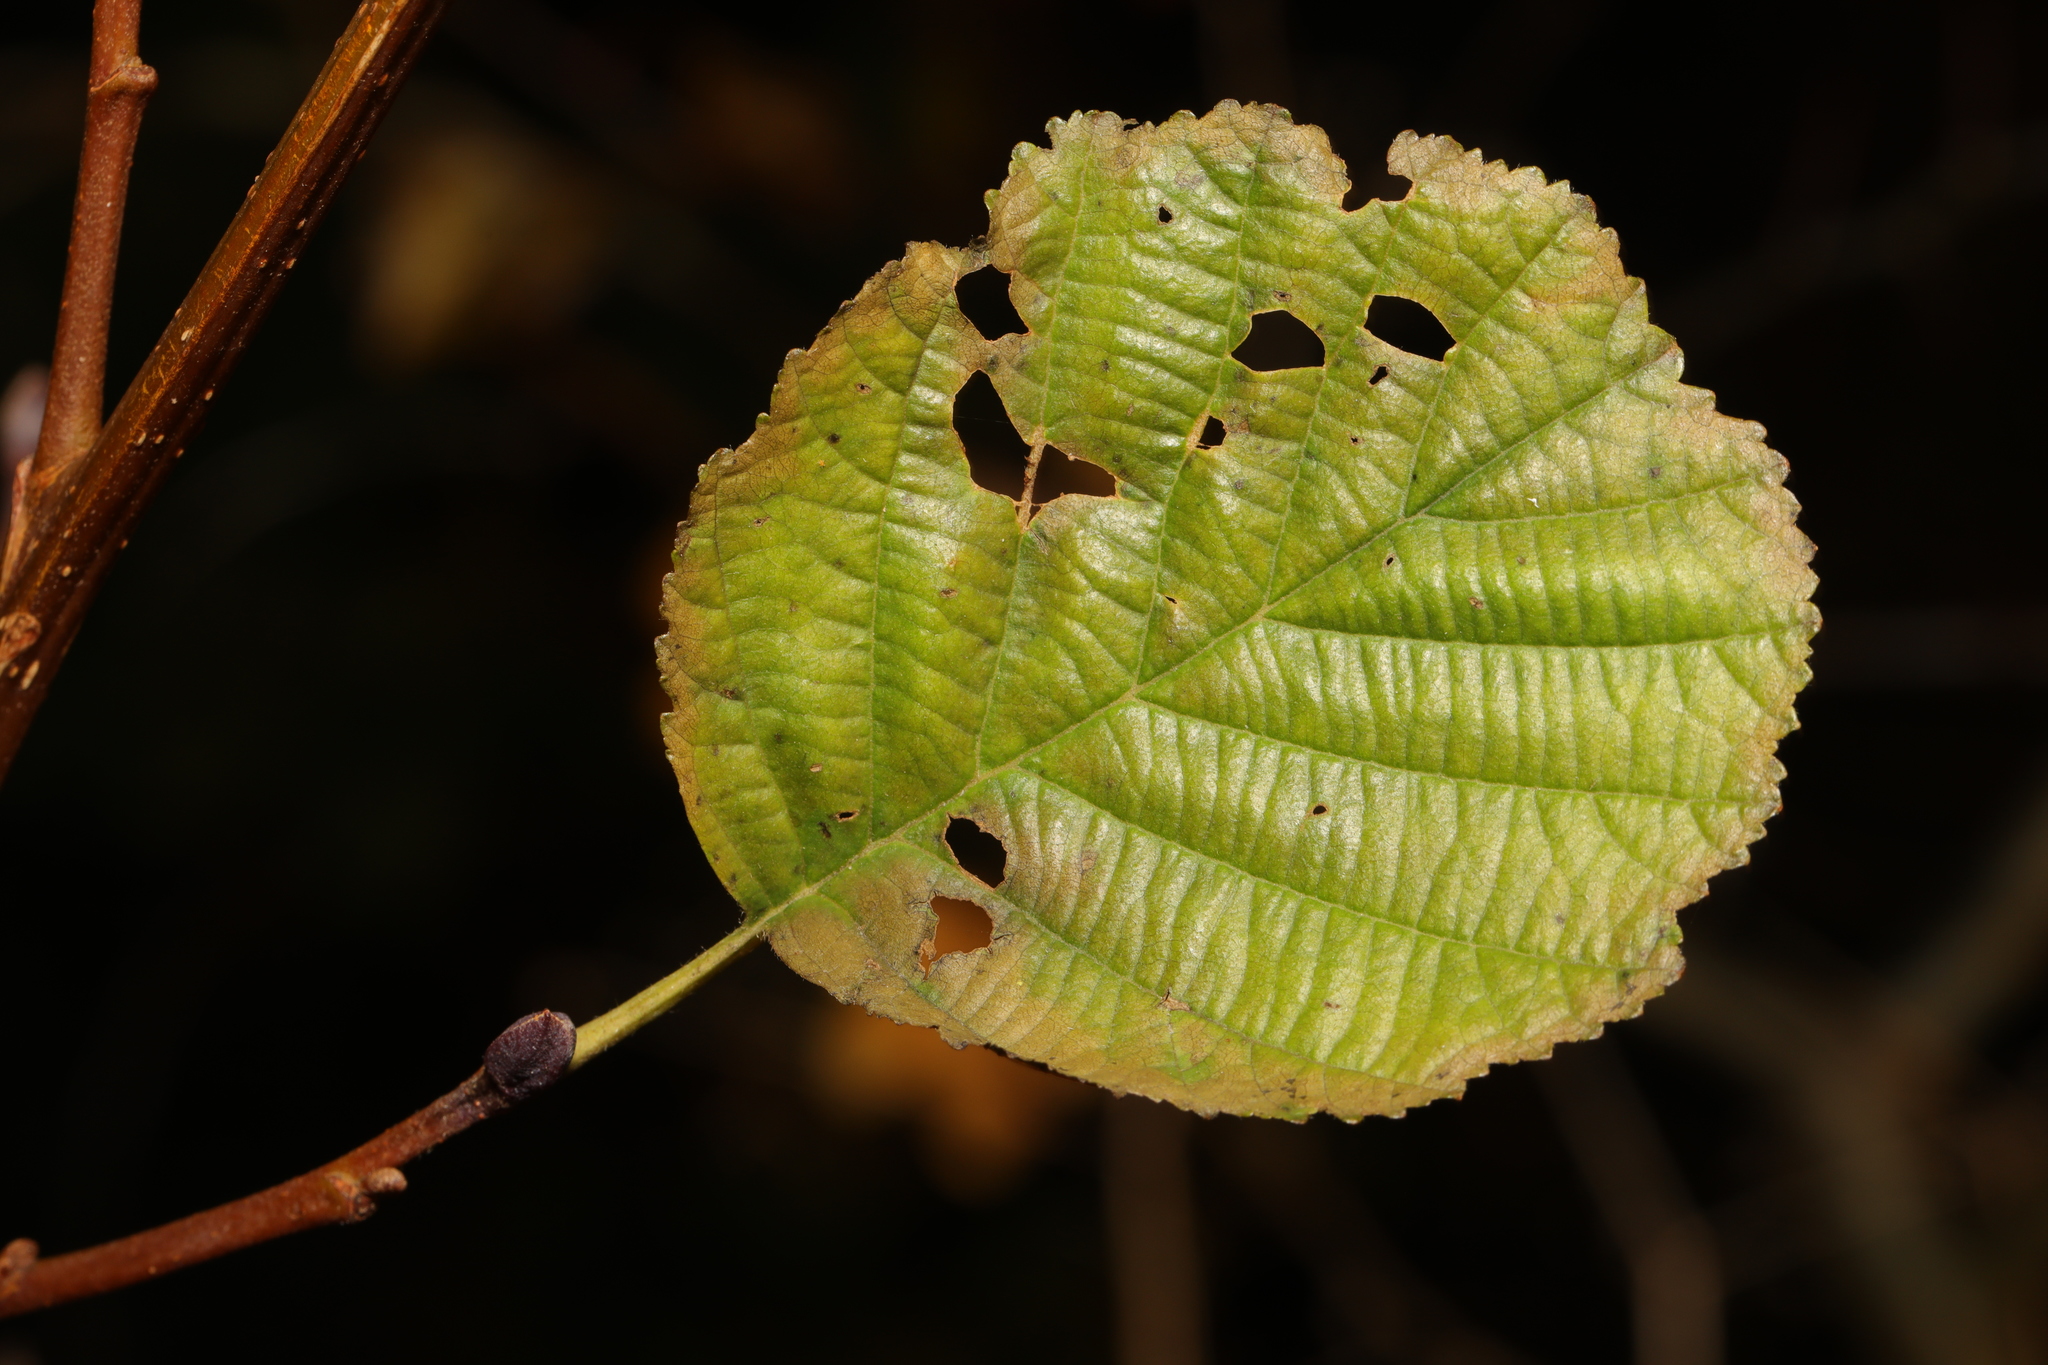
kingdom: Plantae
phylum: Tracheophyta
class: Magnoliopsida
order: Fagales
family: Betulaceae
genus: Alnus
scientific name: Alnus glutinosa
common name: Black alder
